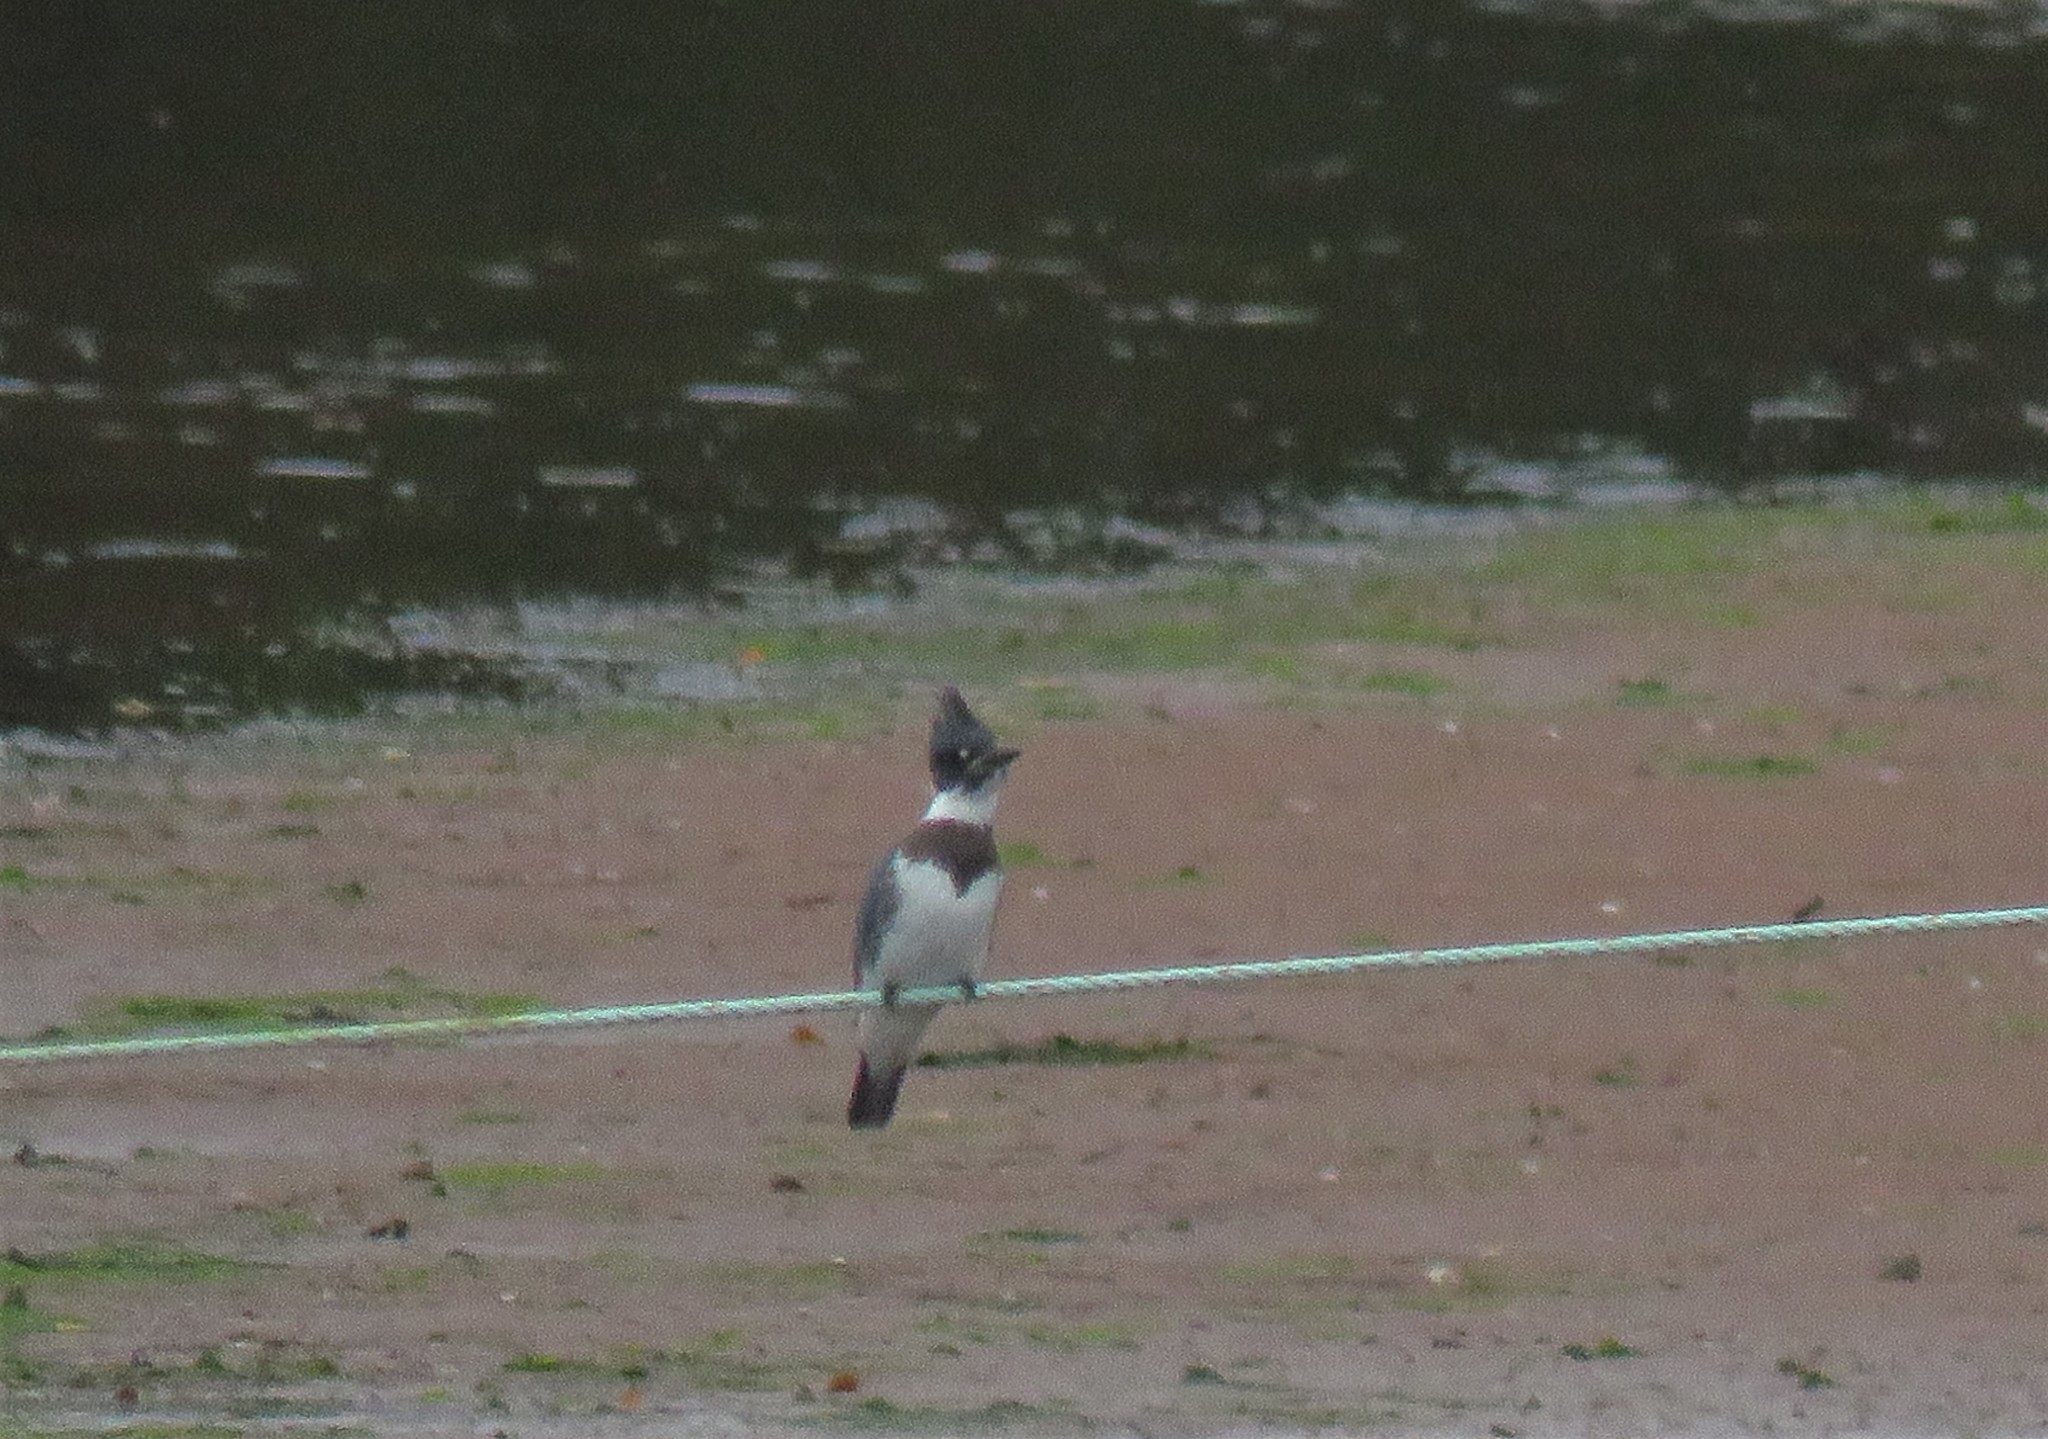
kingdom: Animalia
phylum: Chordata
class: Aves
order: Coraciiformes
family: Alcedinidae
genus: Megaceryle
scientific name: Megaceryle alcyon
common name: Belted kingfisher
